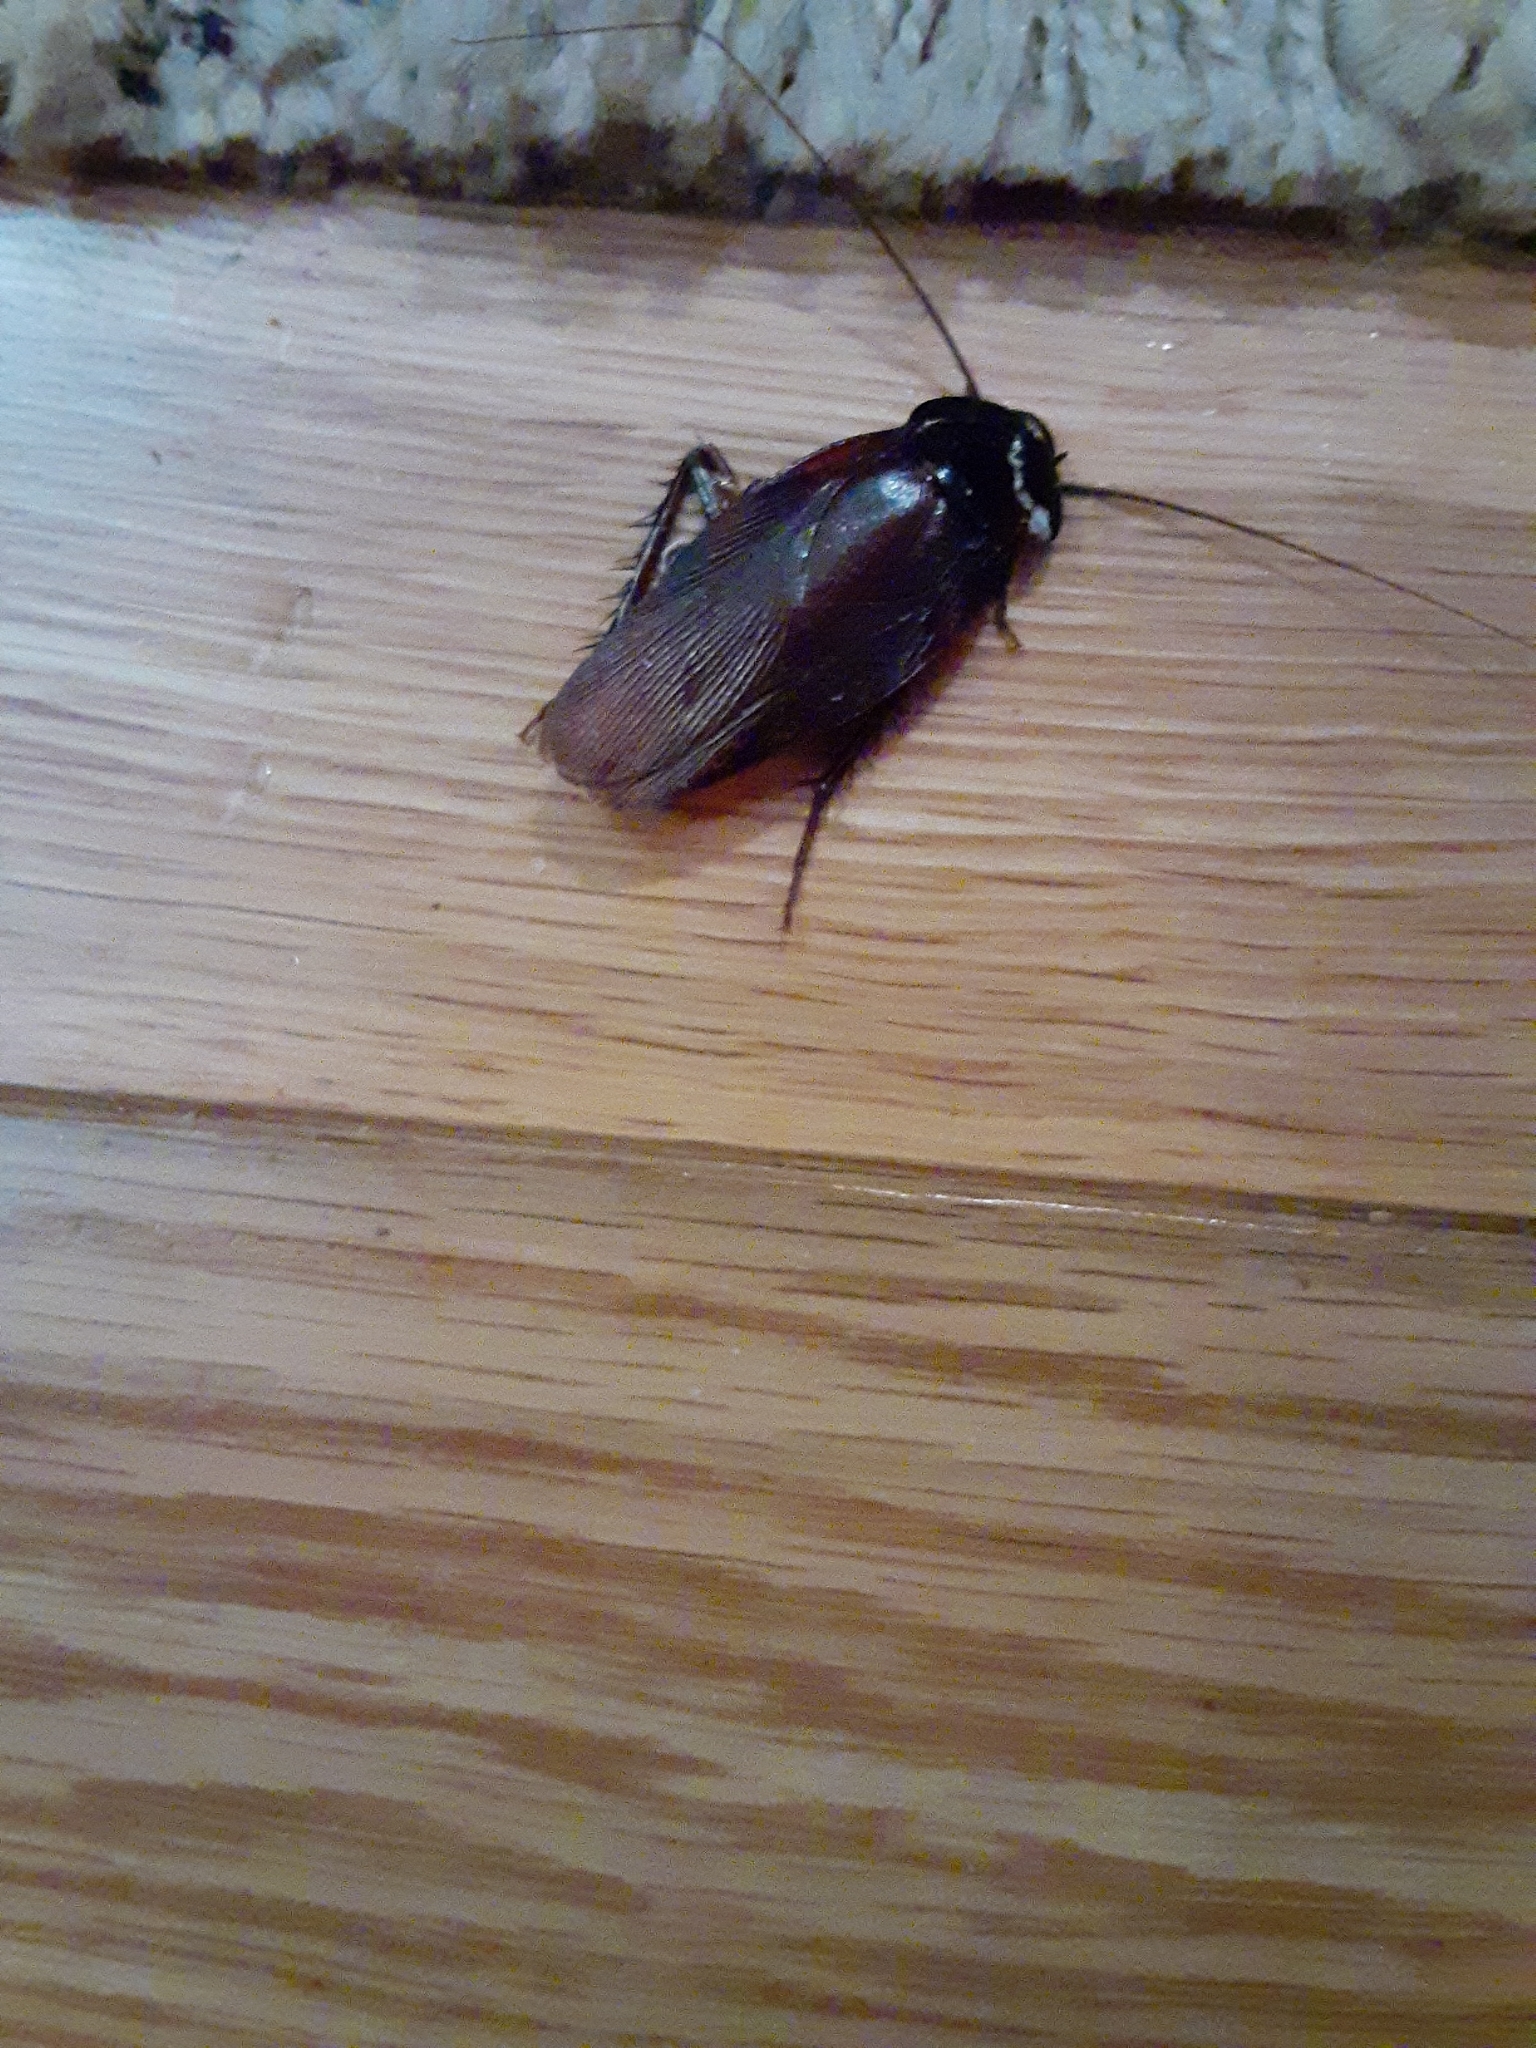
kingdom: Animalia
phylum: Arthropoda
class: Insecta
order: Blattodea
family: Blattidae
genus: Periplaneta
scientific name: Periplaneta fuliginosa
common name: Smokeybrown cockroad
